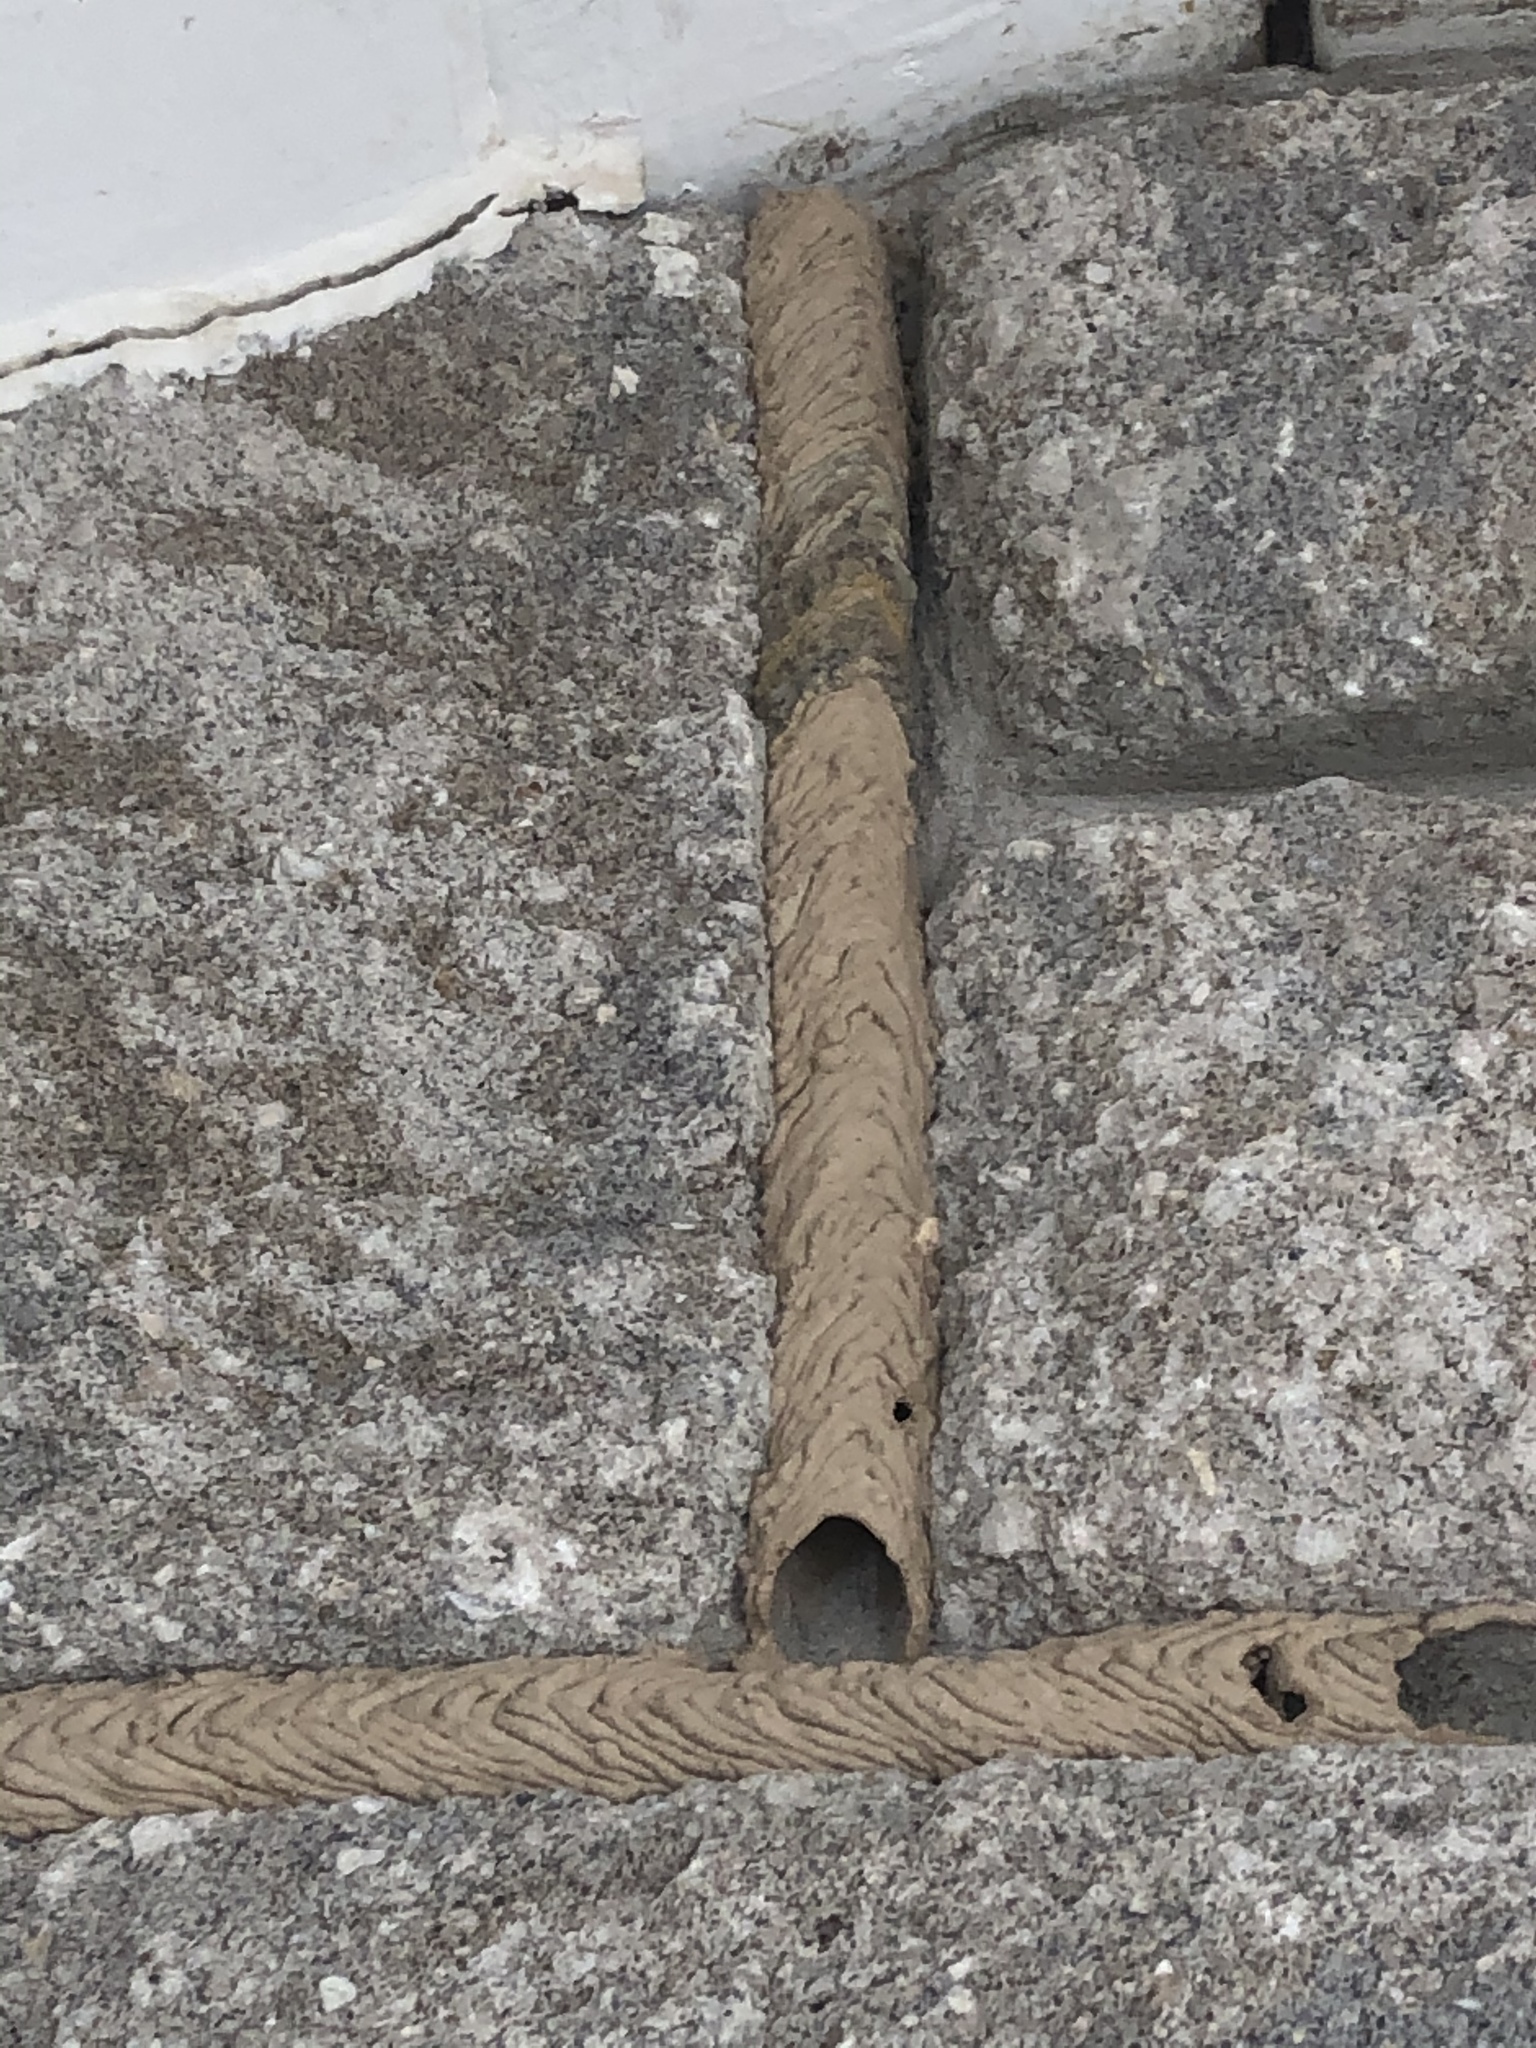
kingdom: Animalia
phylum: Arthropoda
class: Insecta
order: Hymenoptera
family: Crabronidae
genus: Trypoxylon
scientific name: Trypoxylon politum
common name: Organ-pipe mud-dauber wasp
